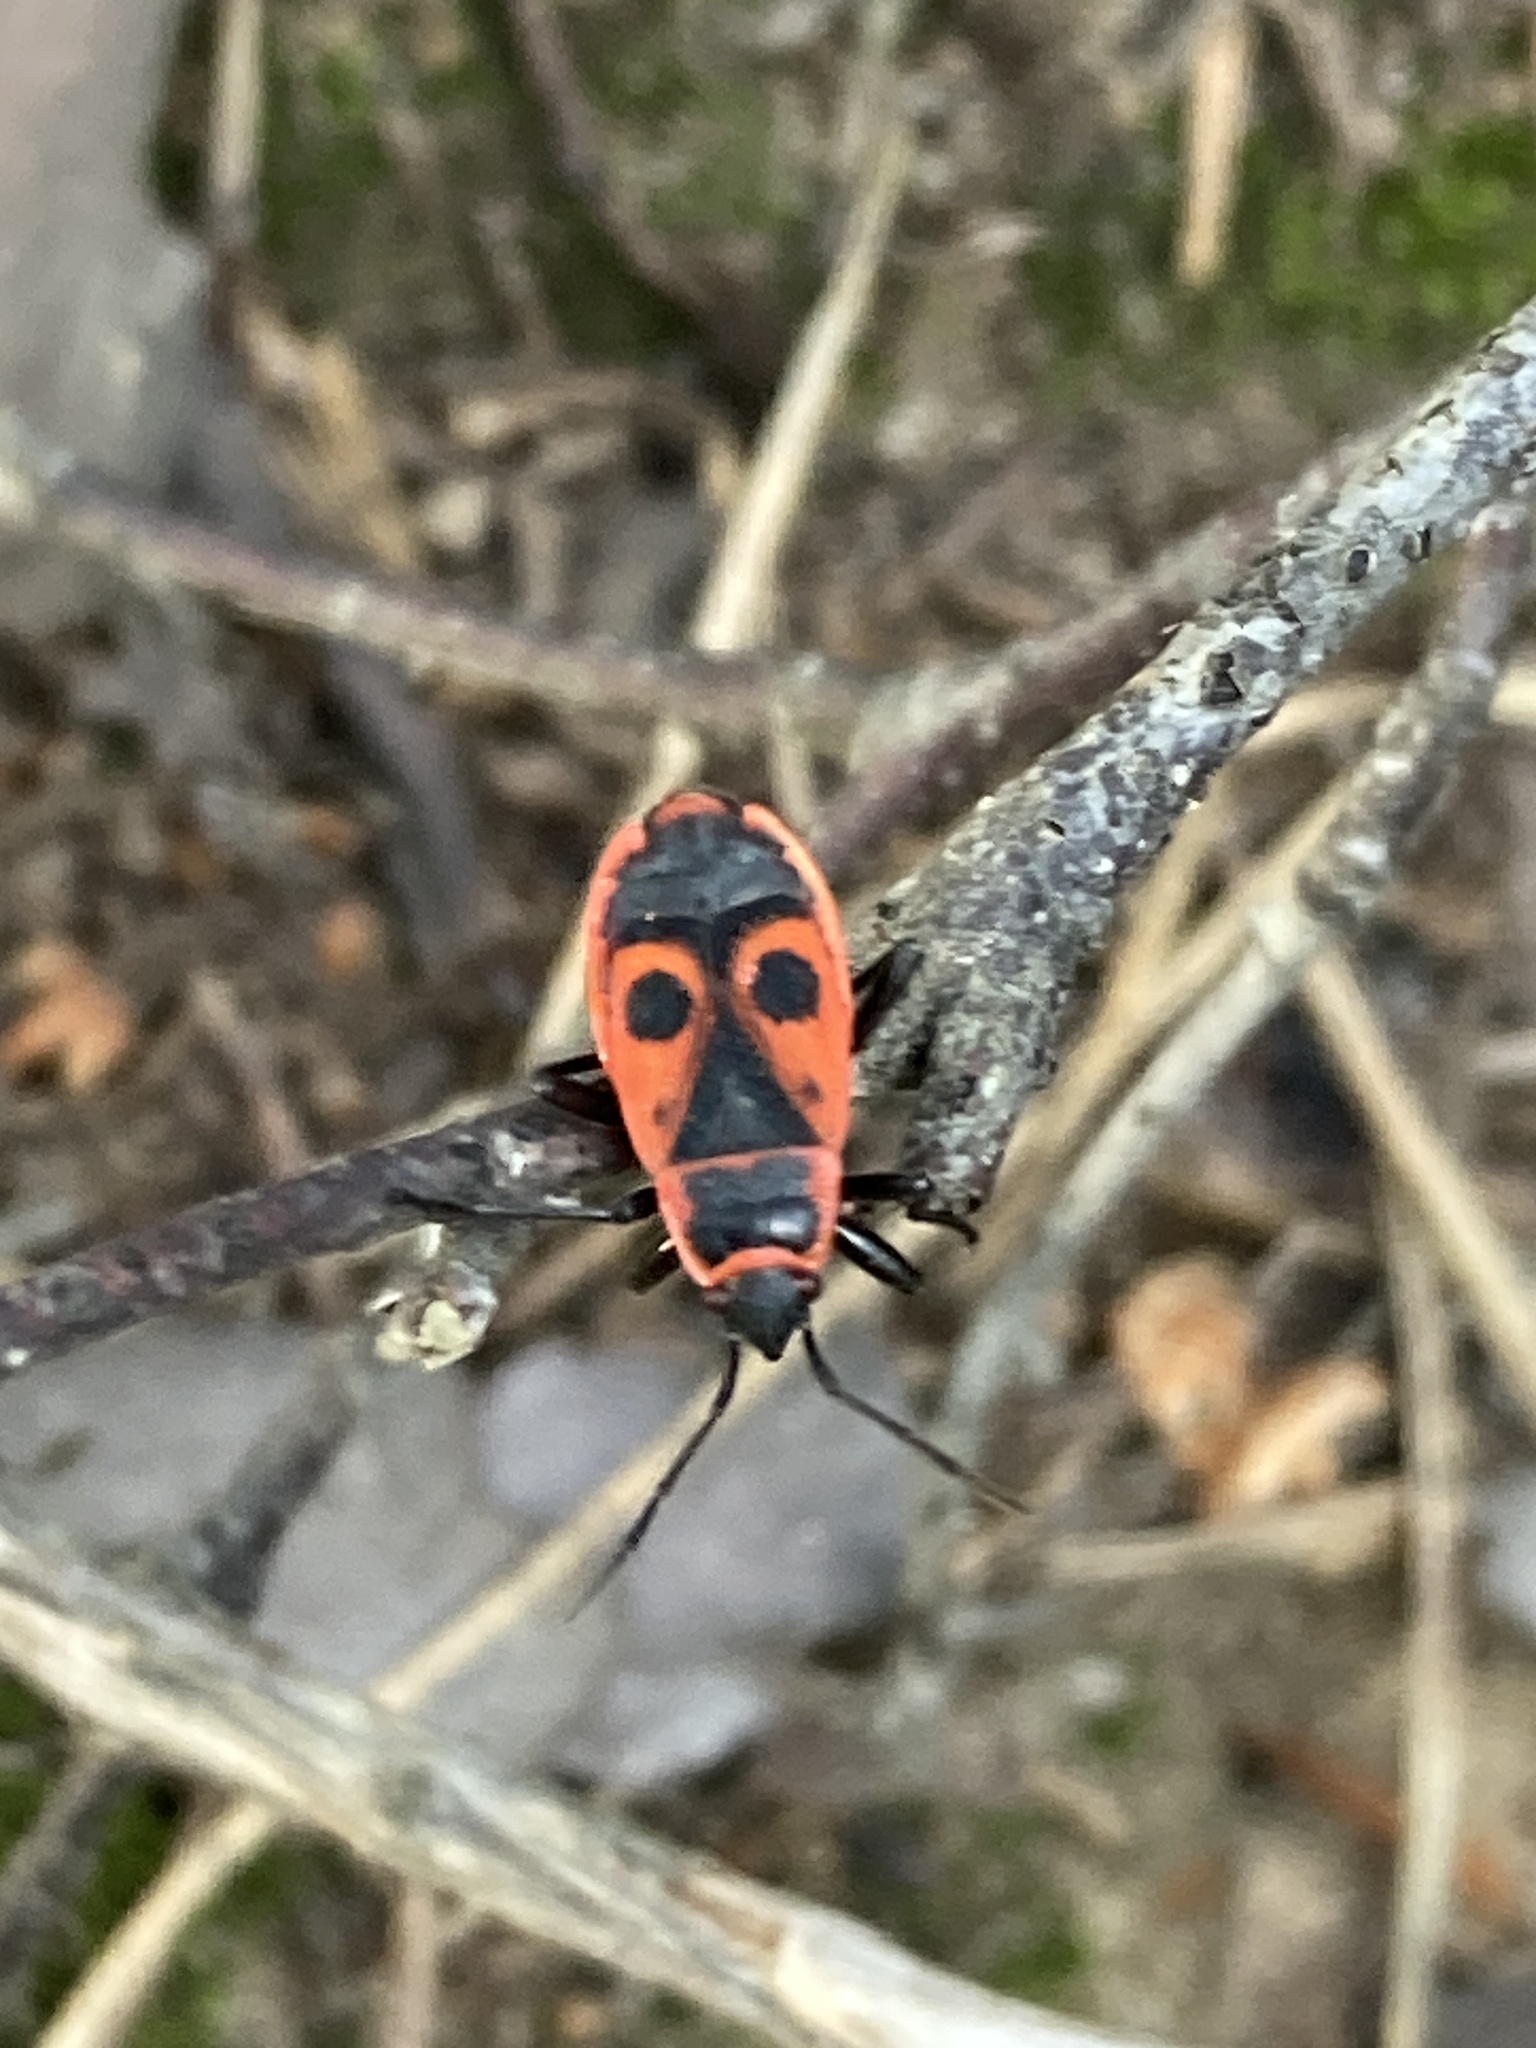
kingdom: Animalia
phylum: Arthropoda
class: Insecta
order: Hemiptera
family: Pyrrhocoridae
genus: Pyrrhocoris
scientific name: Pyrrhocoris apterus
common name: Firebug
